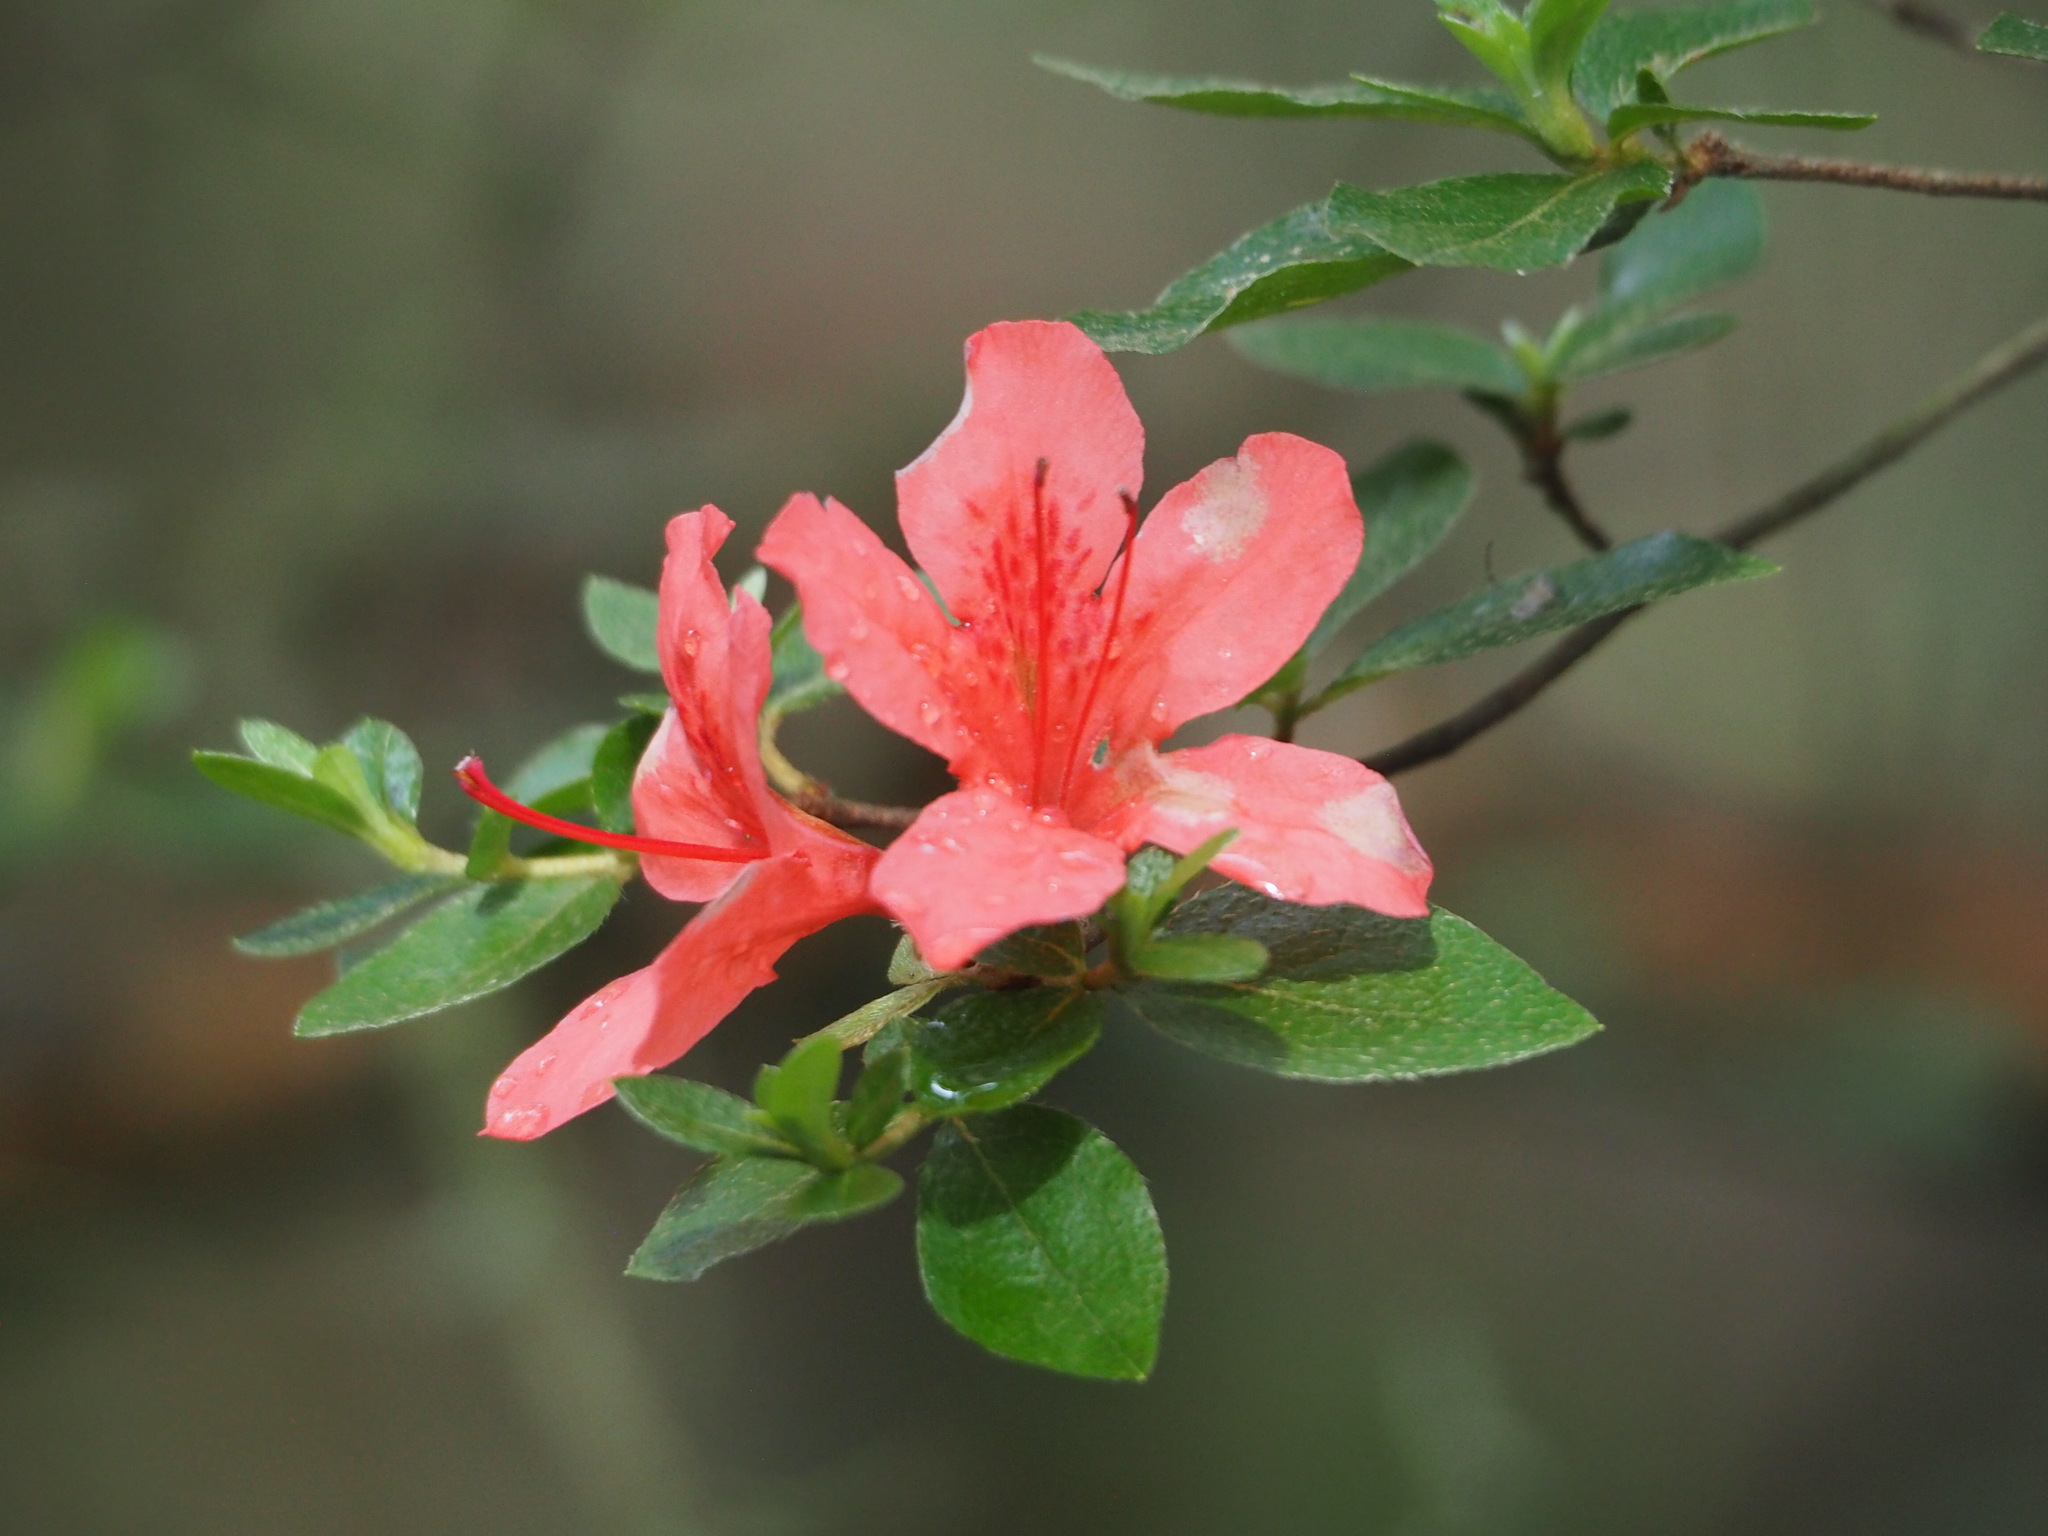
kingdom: Plantae
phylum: Tracheophyta
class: Magnoliopsida
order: Ericales
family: Ericaceae
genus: Rhododendron
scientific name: Rhododendron kaempferi
